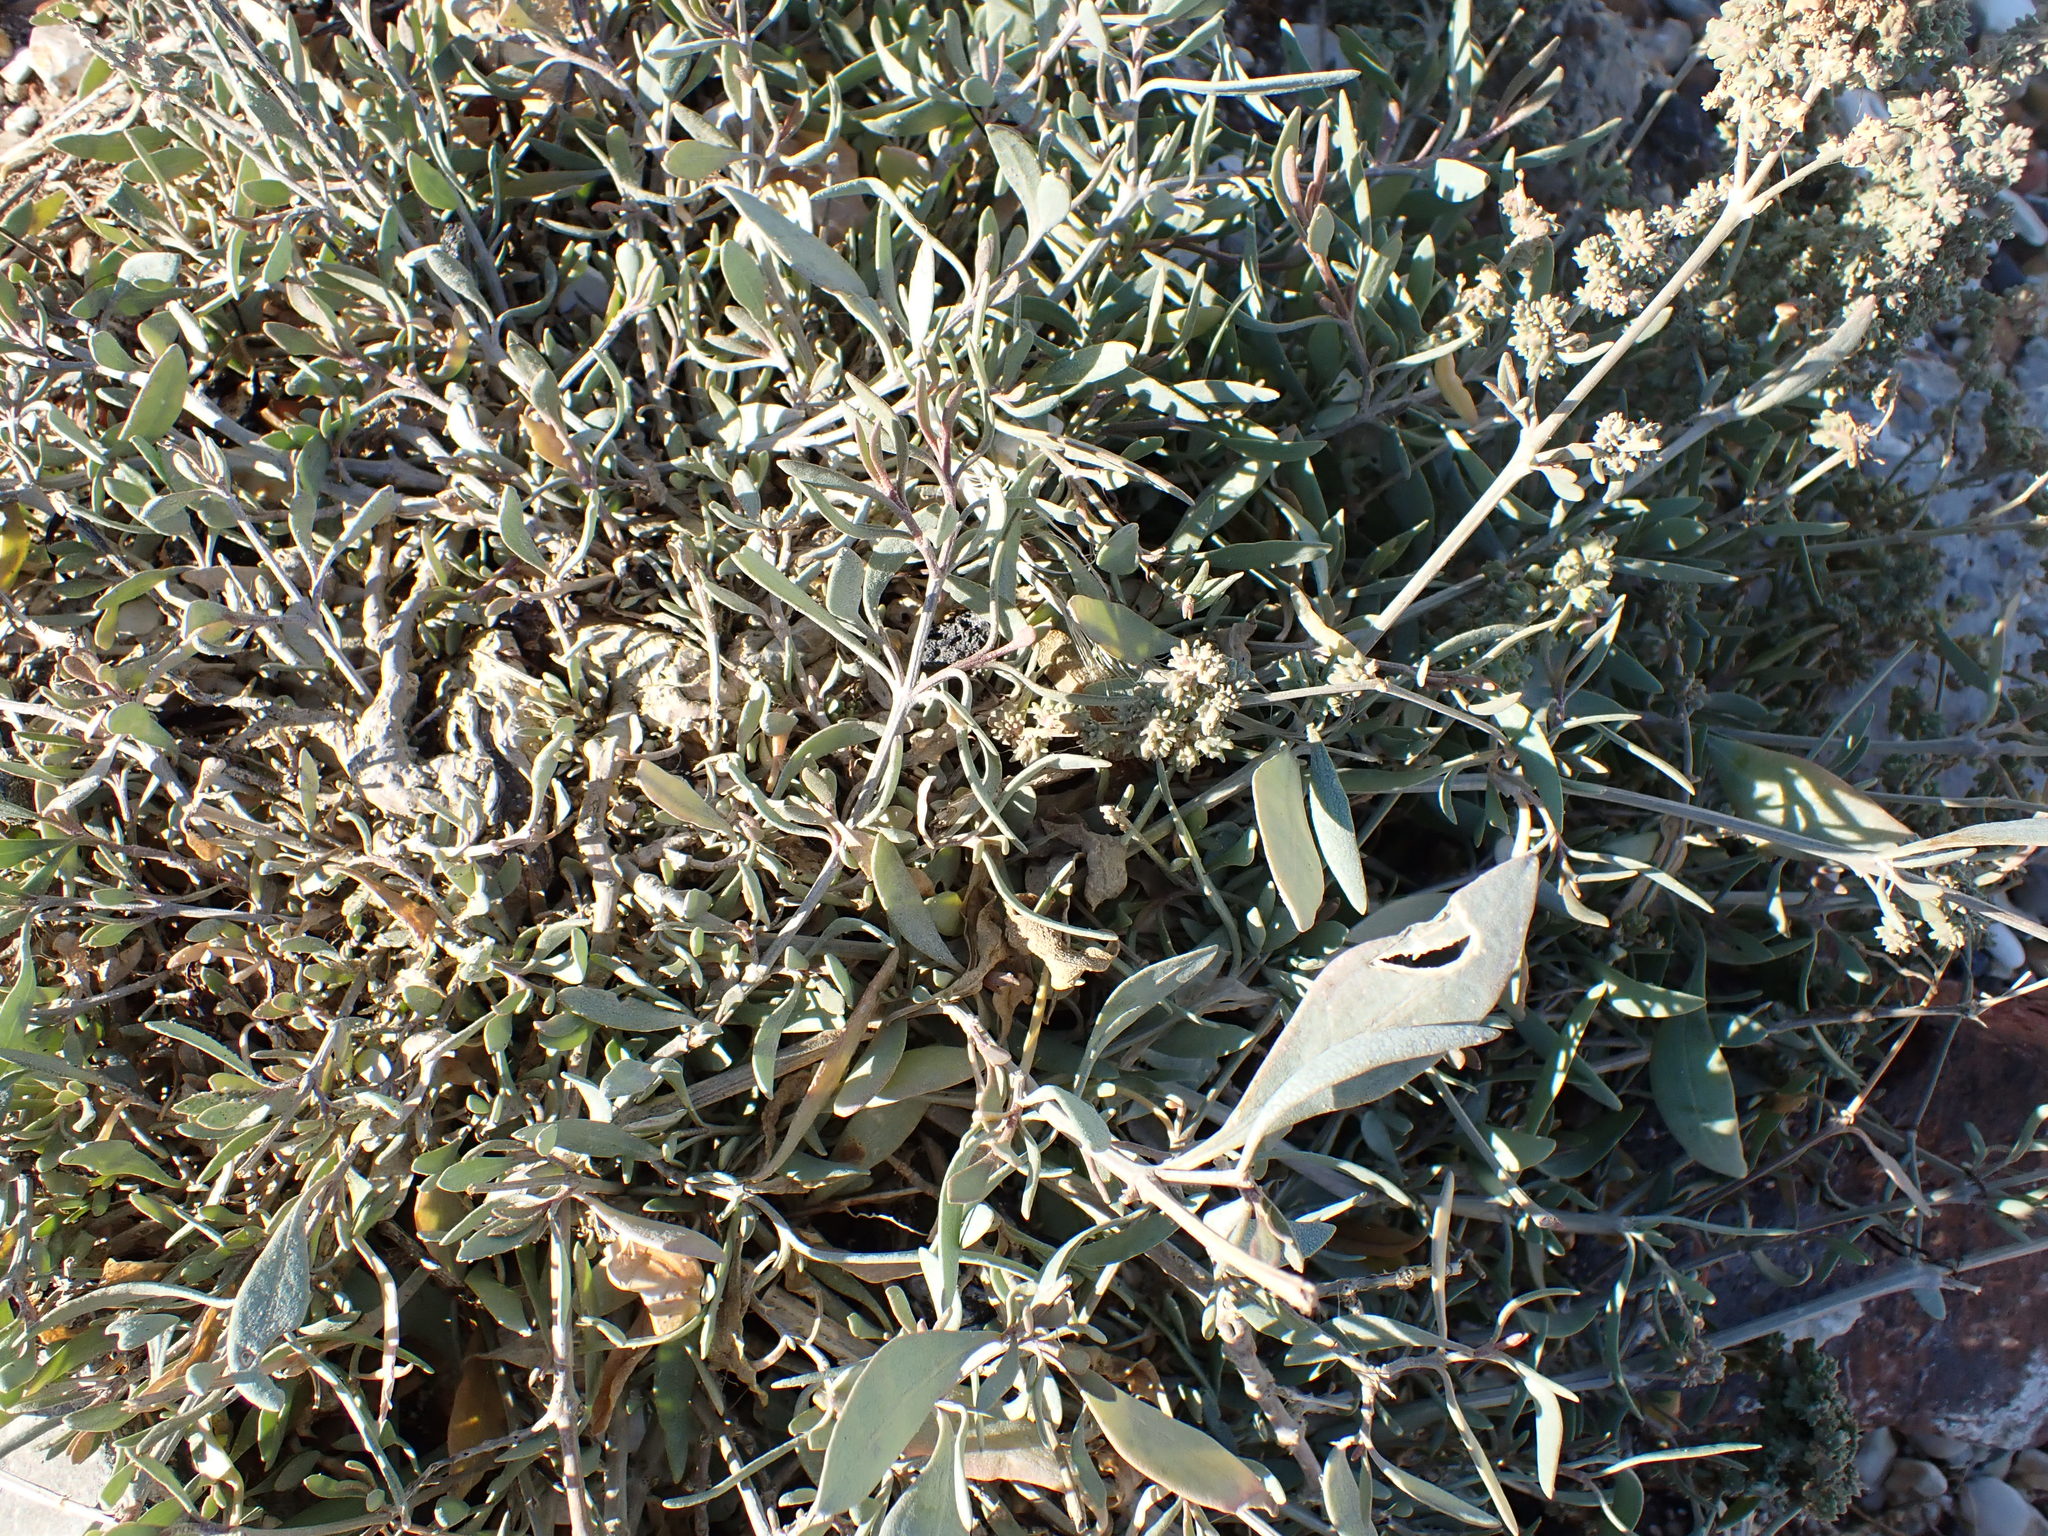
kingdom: Plantae
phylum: Tracheophyta
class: Magnoliopsida
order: Caryophyllales
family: Amaranthaceae
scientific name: Amaranthaceae
